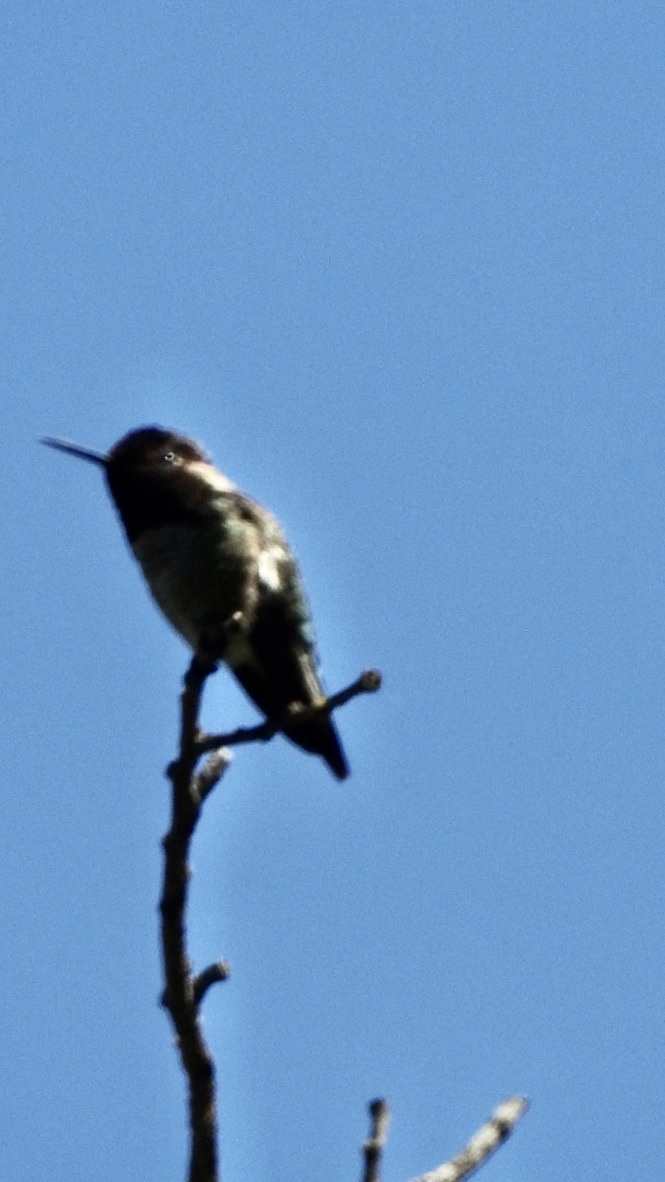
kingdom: Animalia
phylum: Chordata
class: Aves
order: Apodiformes
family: Trochilidae
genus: Calypte
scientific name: Calypte anna
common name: Anna's hummingbird
